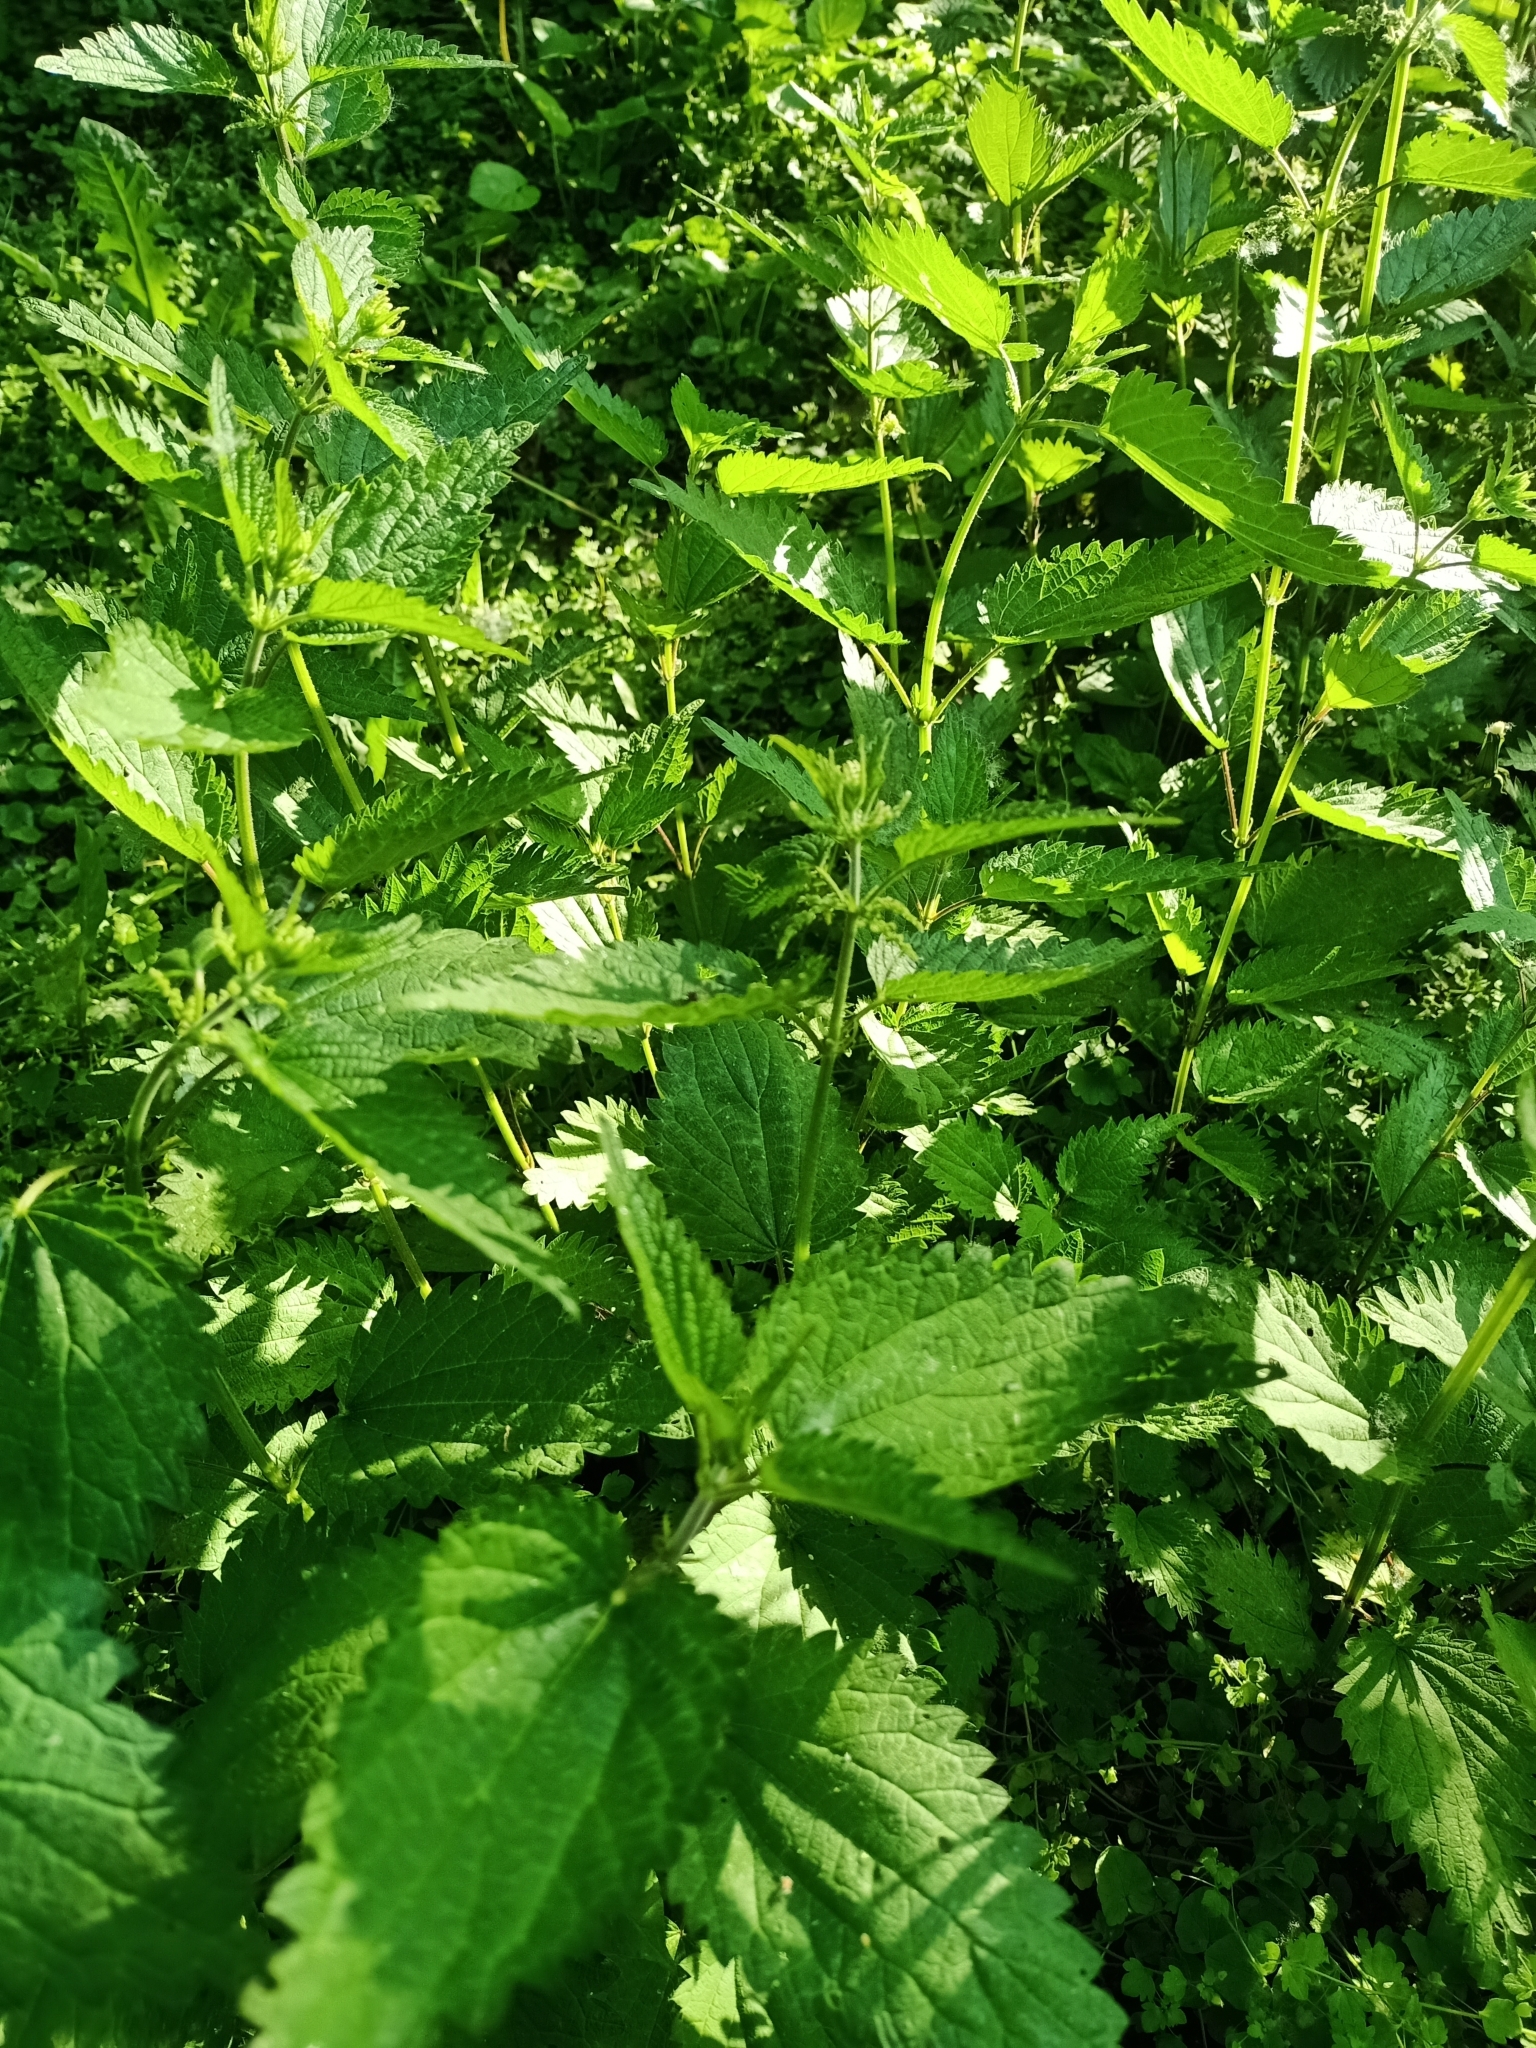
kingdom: Plantae
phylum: Tracheophyta
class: Magnoliopsida
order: Rosales
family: Urticaceae
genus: Urtica
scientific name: Urtica dioica
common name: Common nettle
